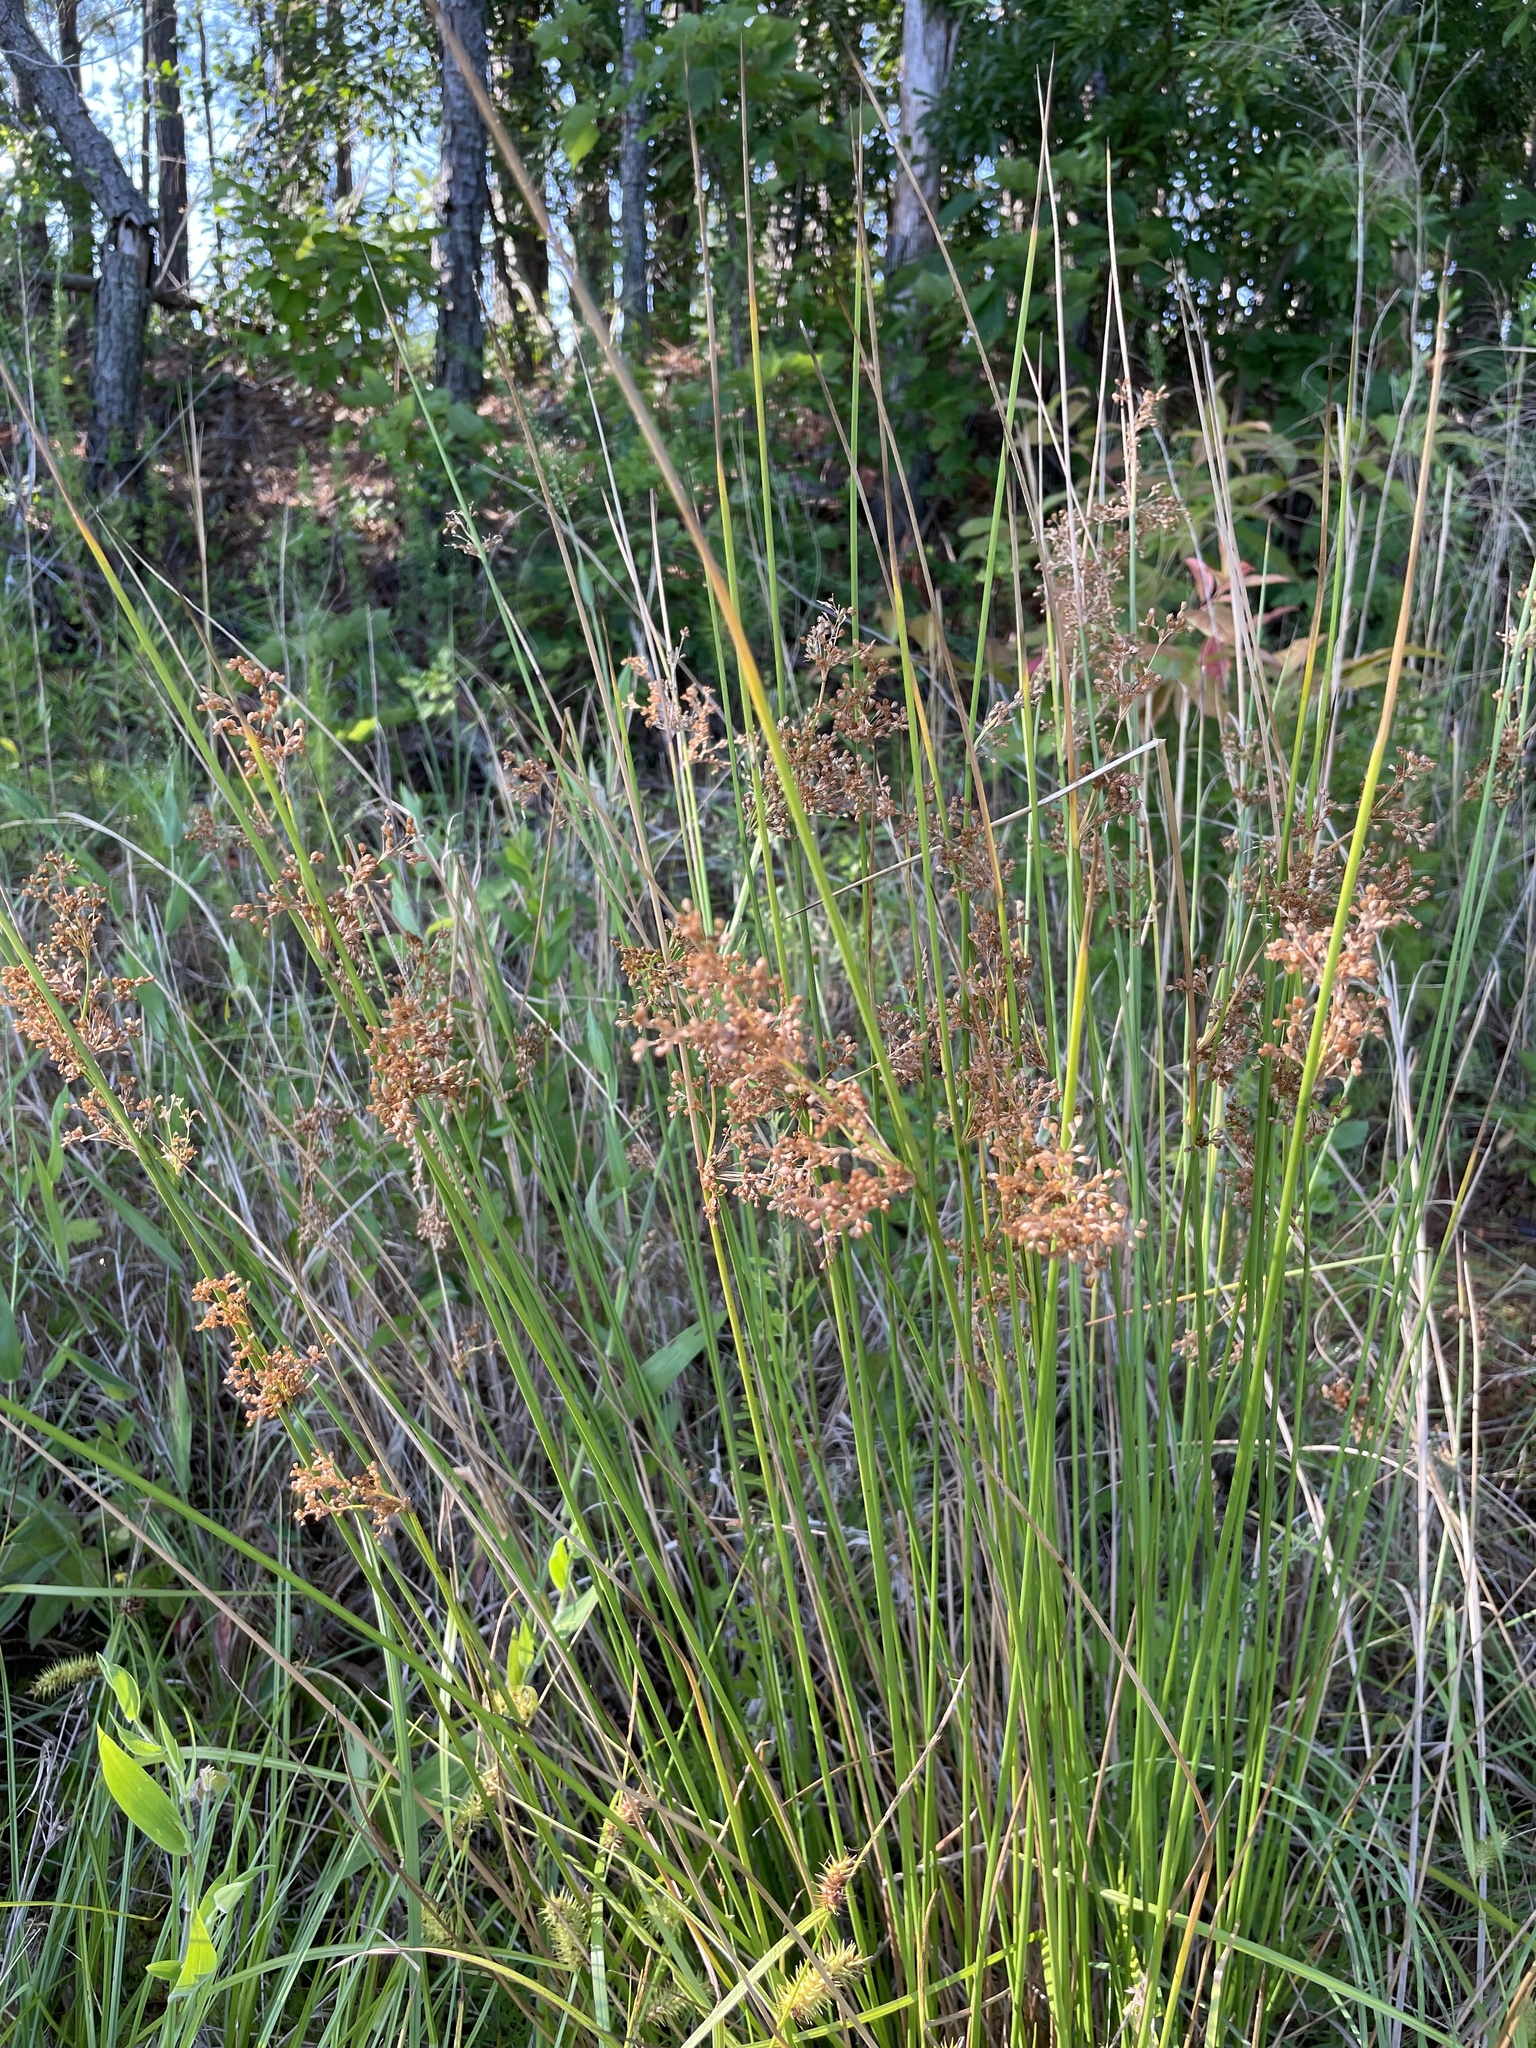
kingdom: Plantae
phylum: Tracheophyta
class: Liliopsida
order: Poales
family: Juncaceae
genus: Juncus
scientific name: Juncus effusus
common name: Soft rush
